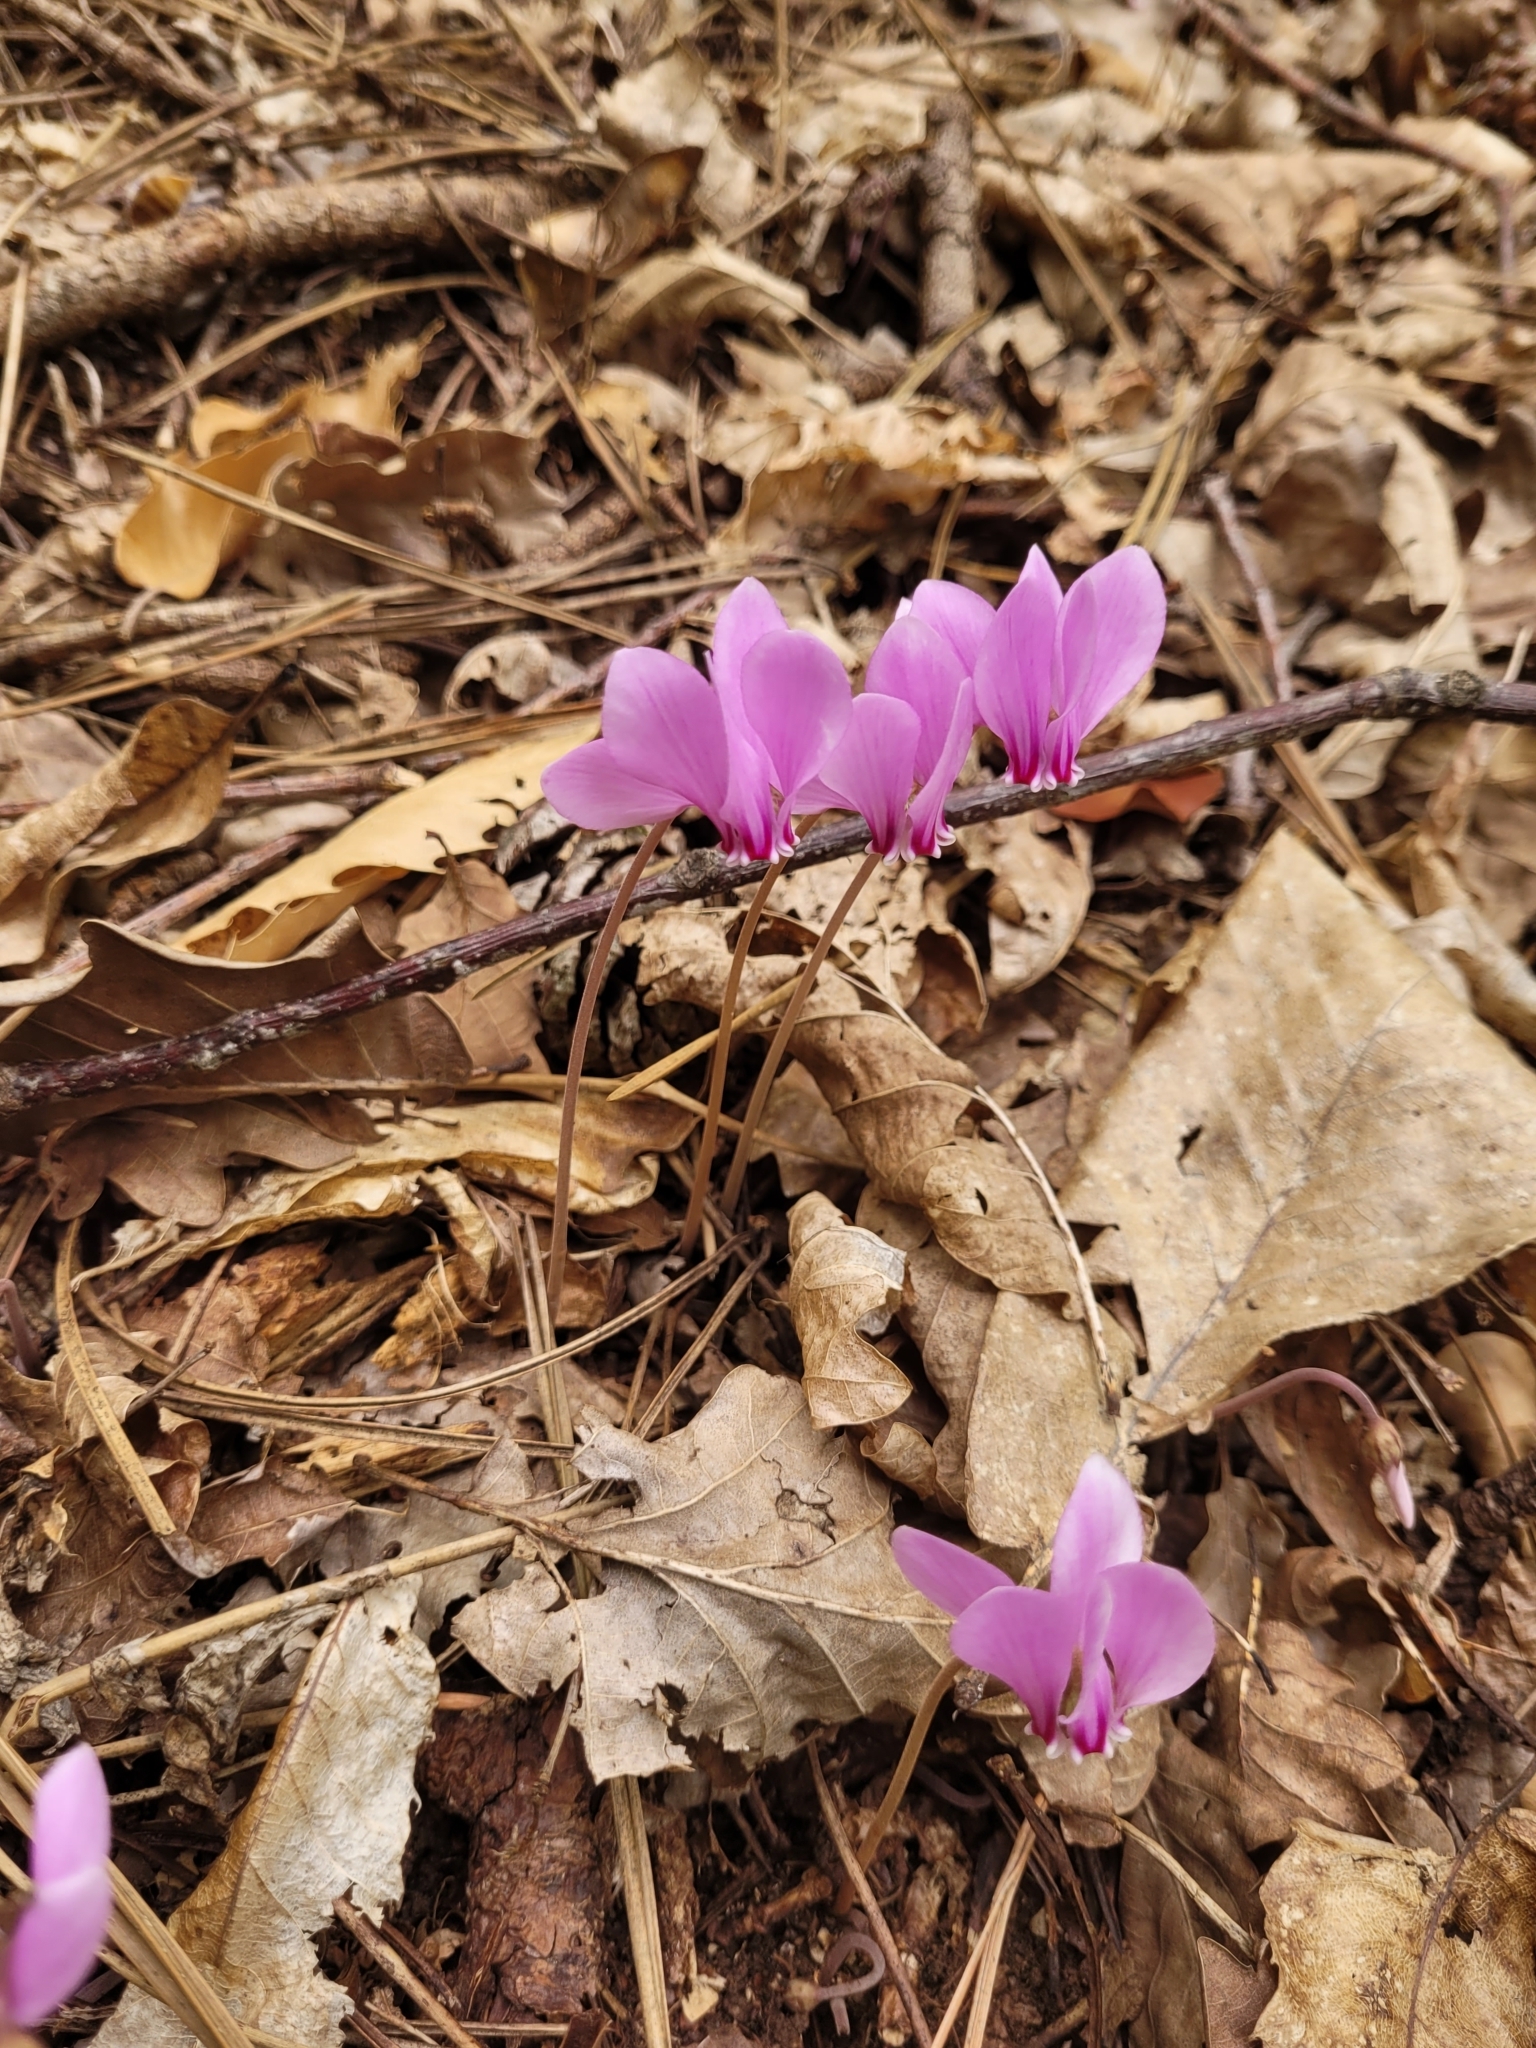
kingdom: Plantae
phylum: Tracheophyta
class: Magnoliopsida
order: Ericales
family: Primulaceae
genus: Cyclamen
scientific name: Cyclamen hederifolium
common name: Sowbread
